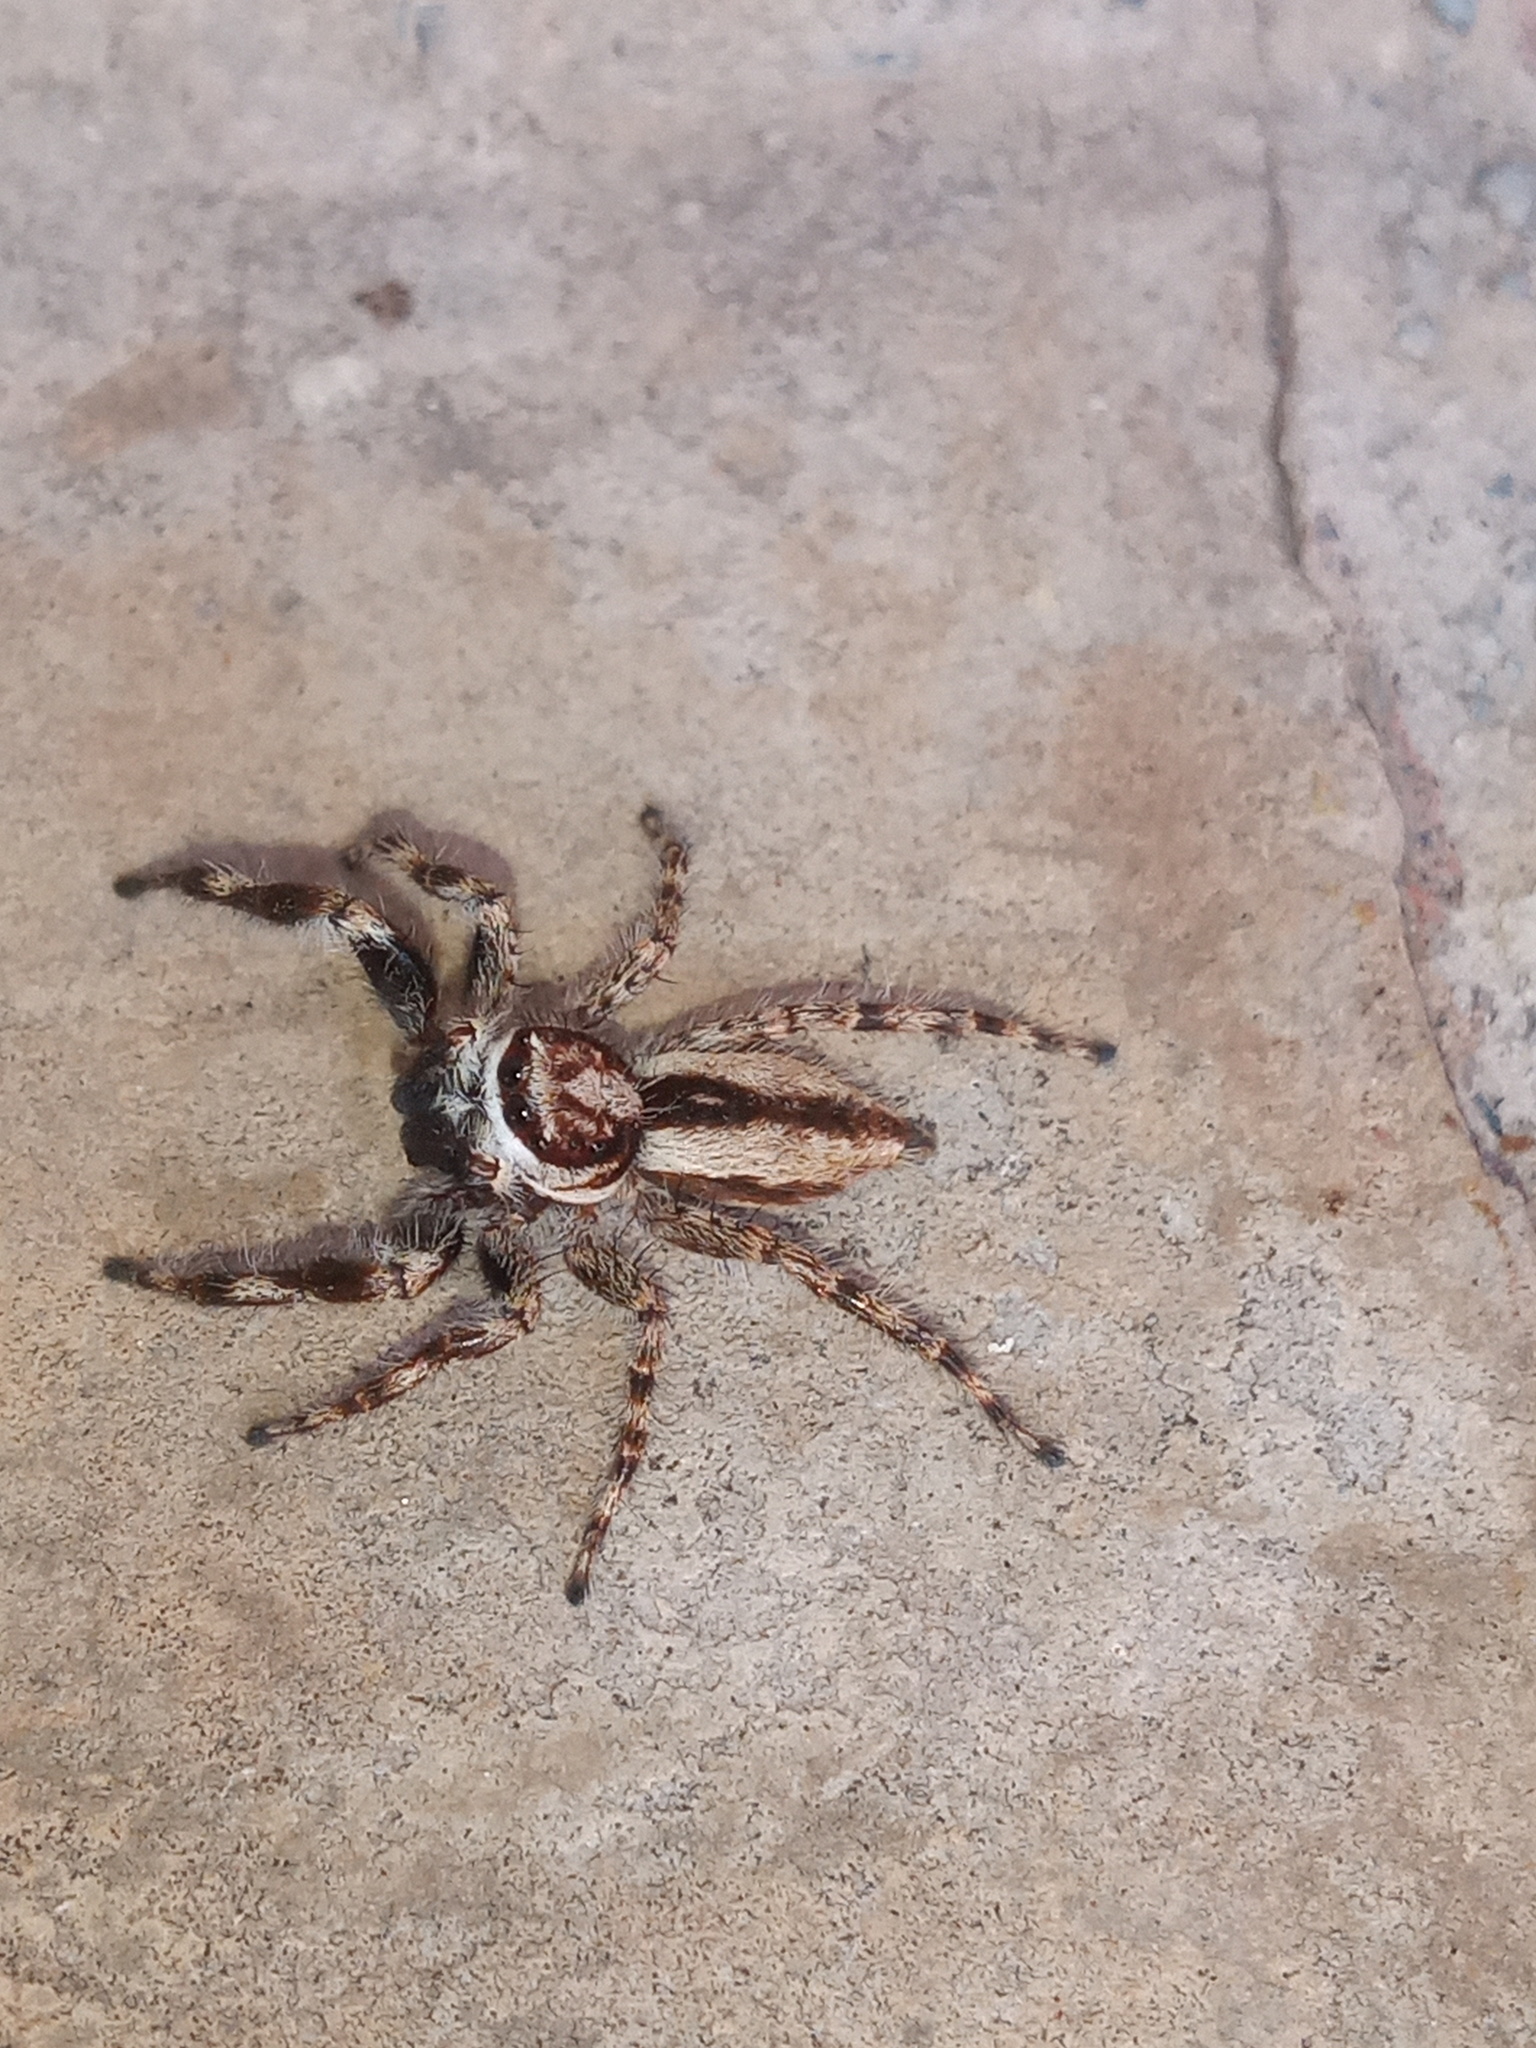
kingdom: Animalia
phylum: Arthropoda
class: Arachnida
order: Araneae
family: Salticidae
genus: Menemerus
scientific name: Menemerus bivittatus
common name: Gray wall jumper
